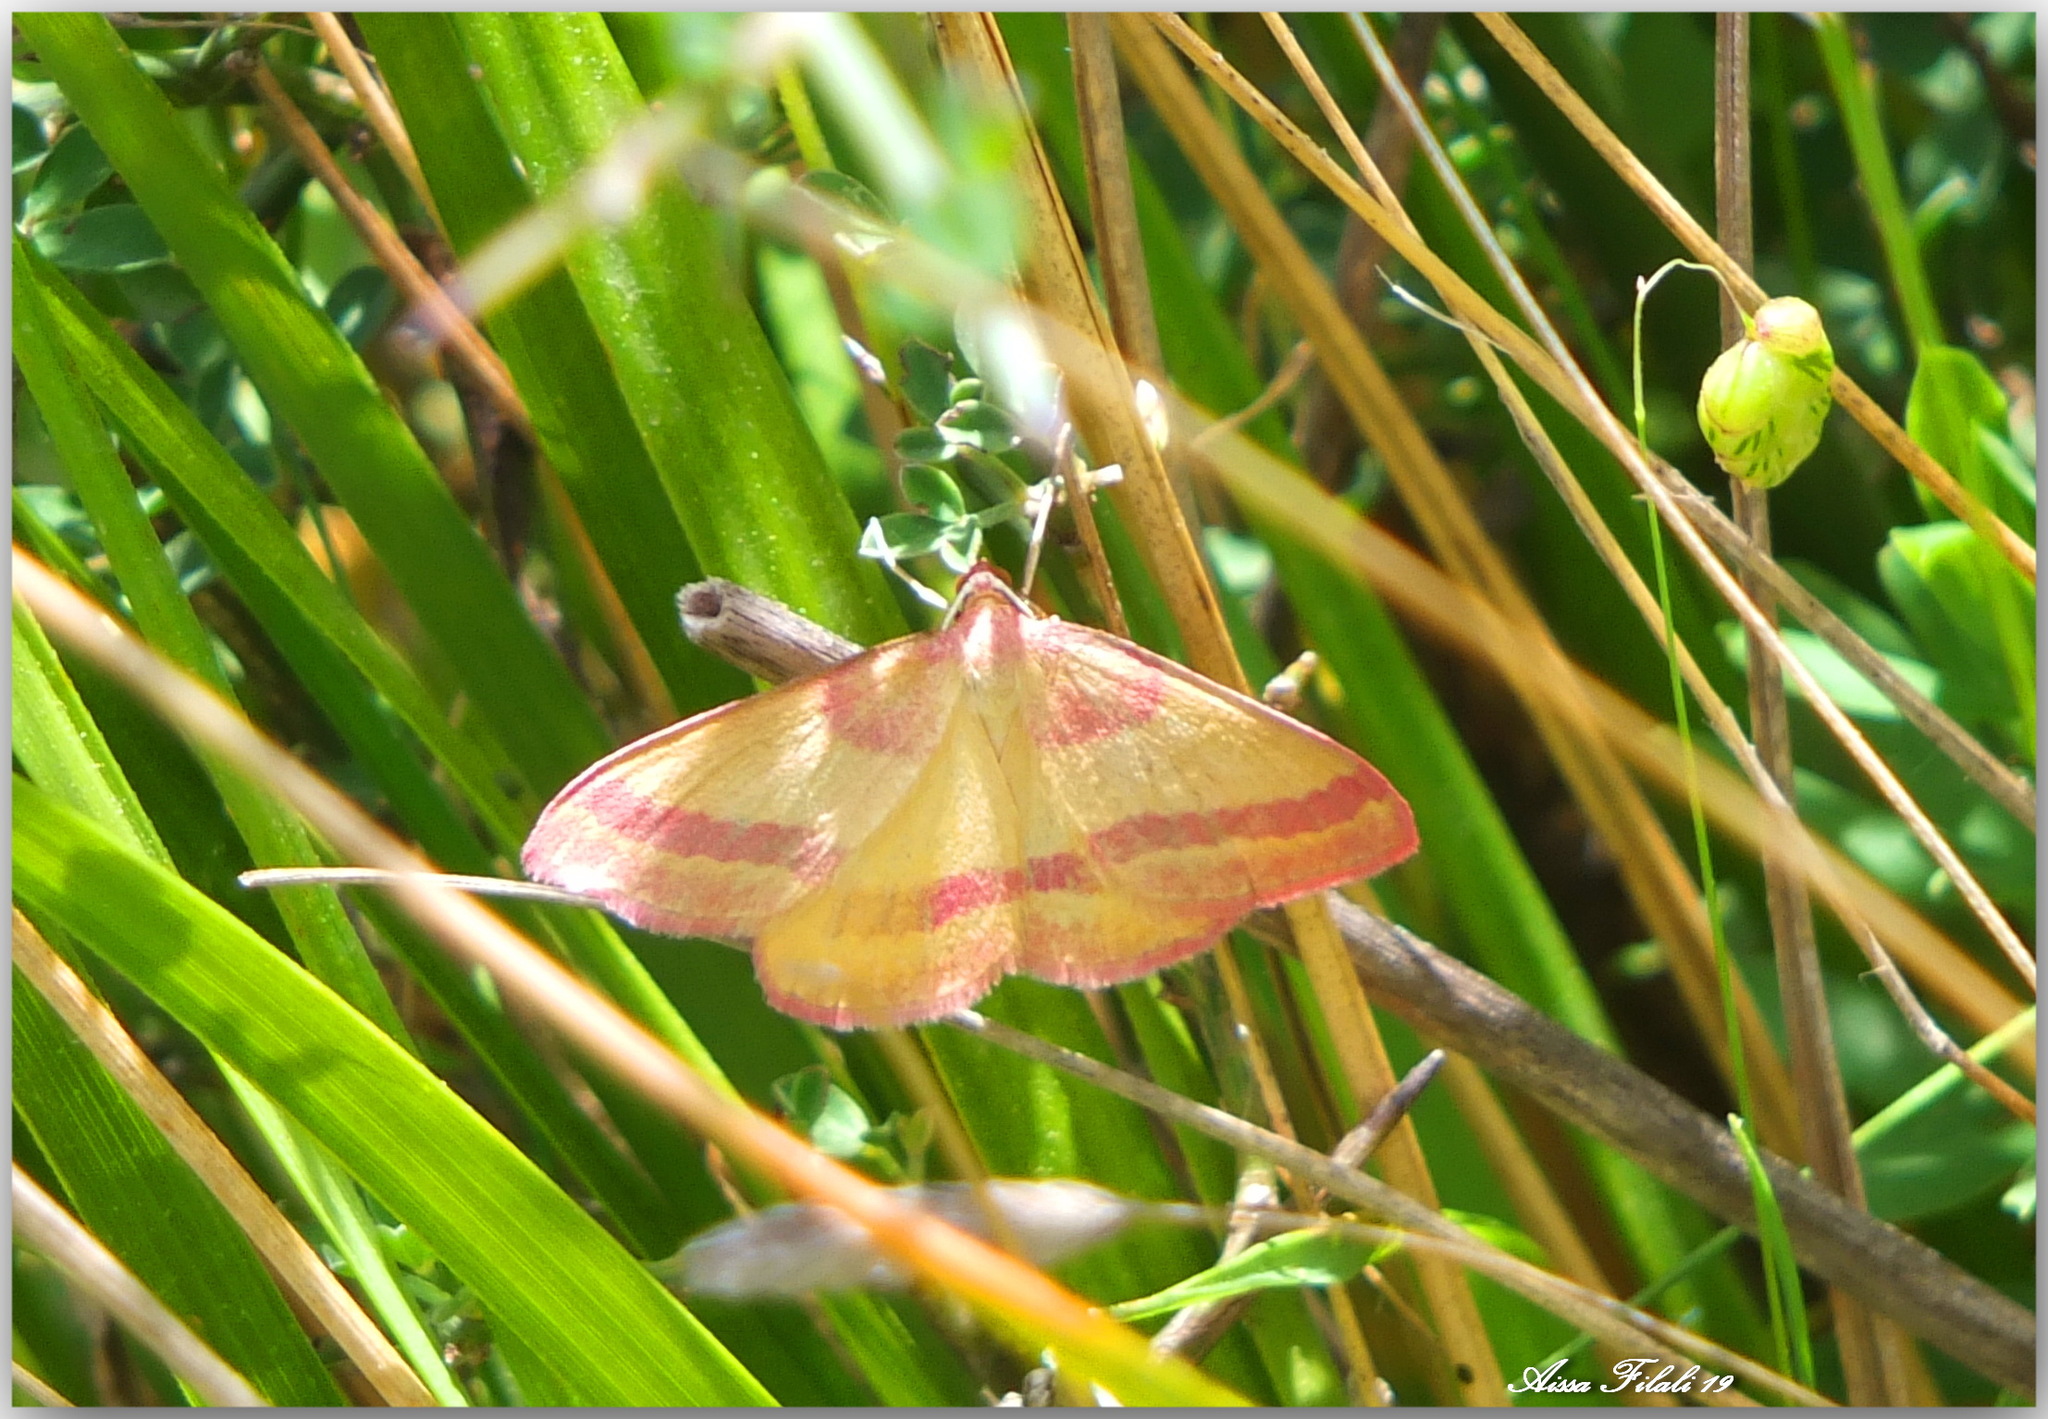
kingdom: Animalia
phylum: Arthropoda
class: Insecta
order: Lepidoptera
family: Geometridae
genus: Rhodostrophia
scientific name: Rhodostrophia pudorata
